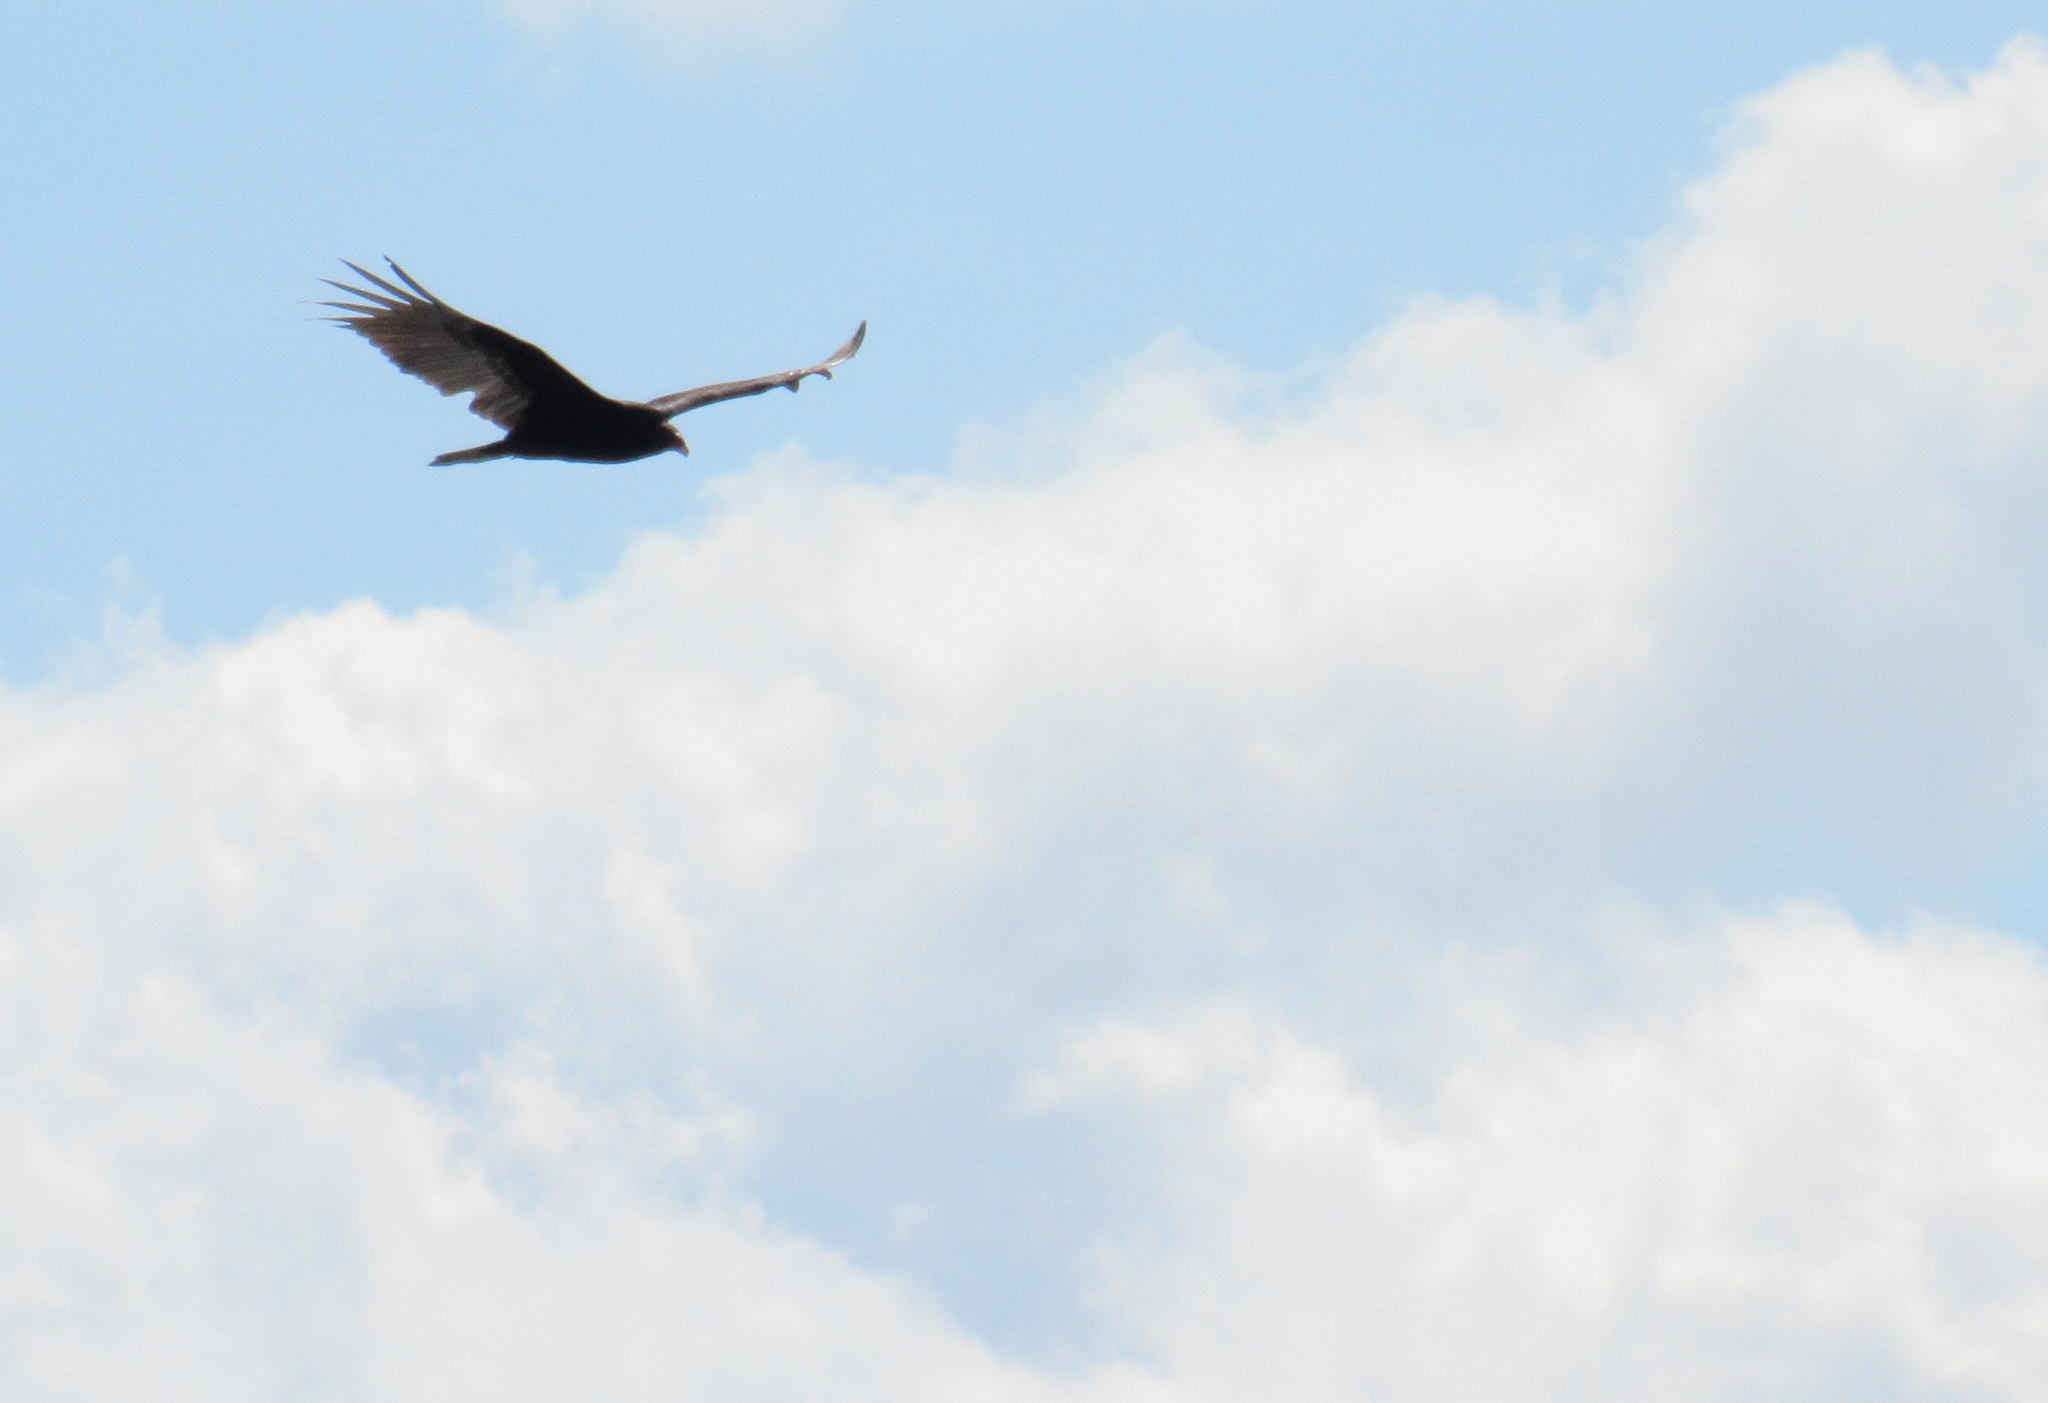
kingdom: Animalia
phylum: Chordata
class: Aves
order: Accipitriformes
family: Cathartidae
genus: Cathartes
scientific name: Cathartes aura
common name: Turkey vulture
